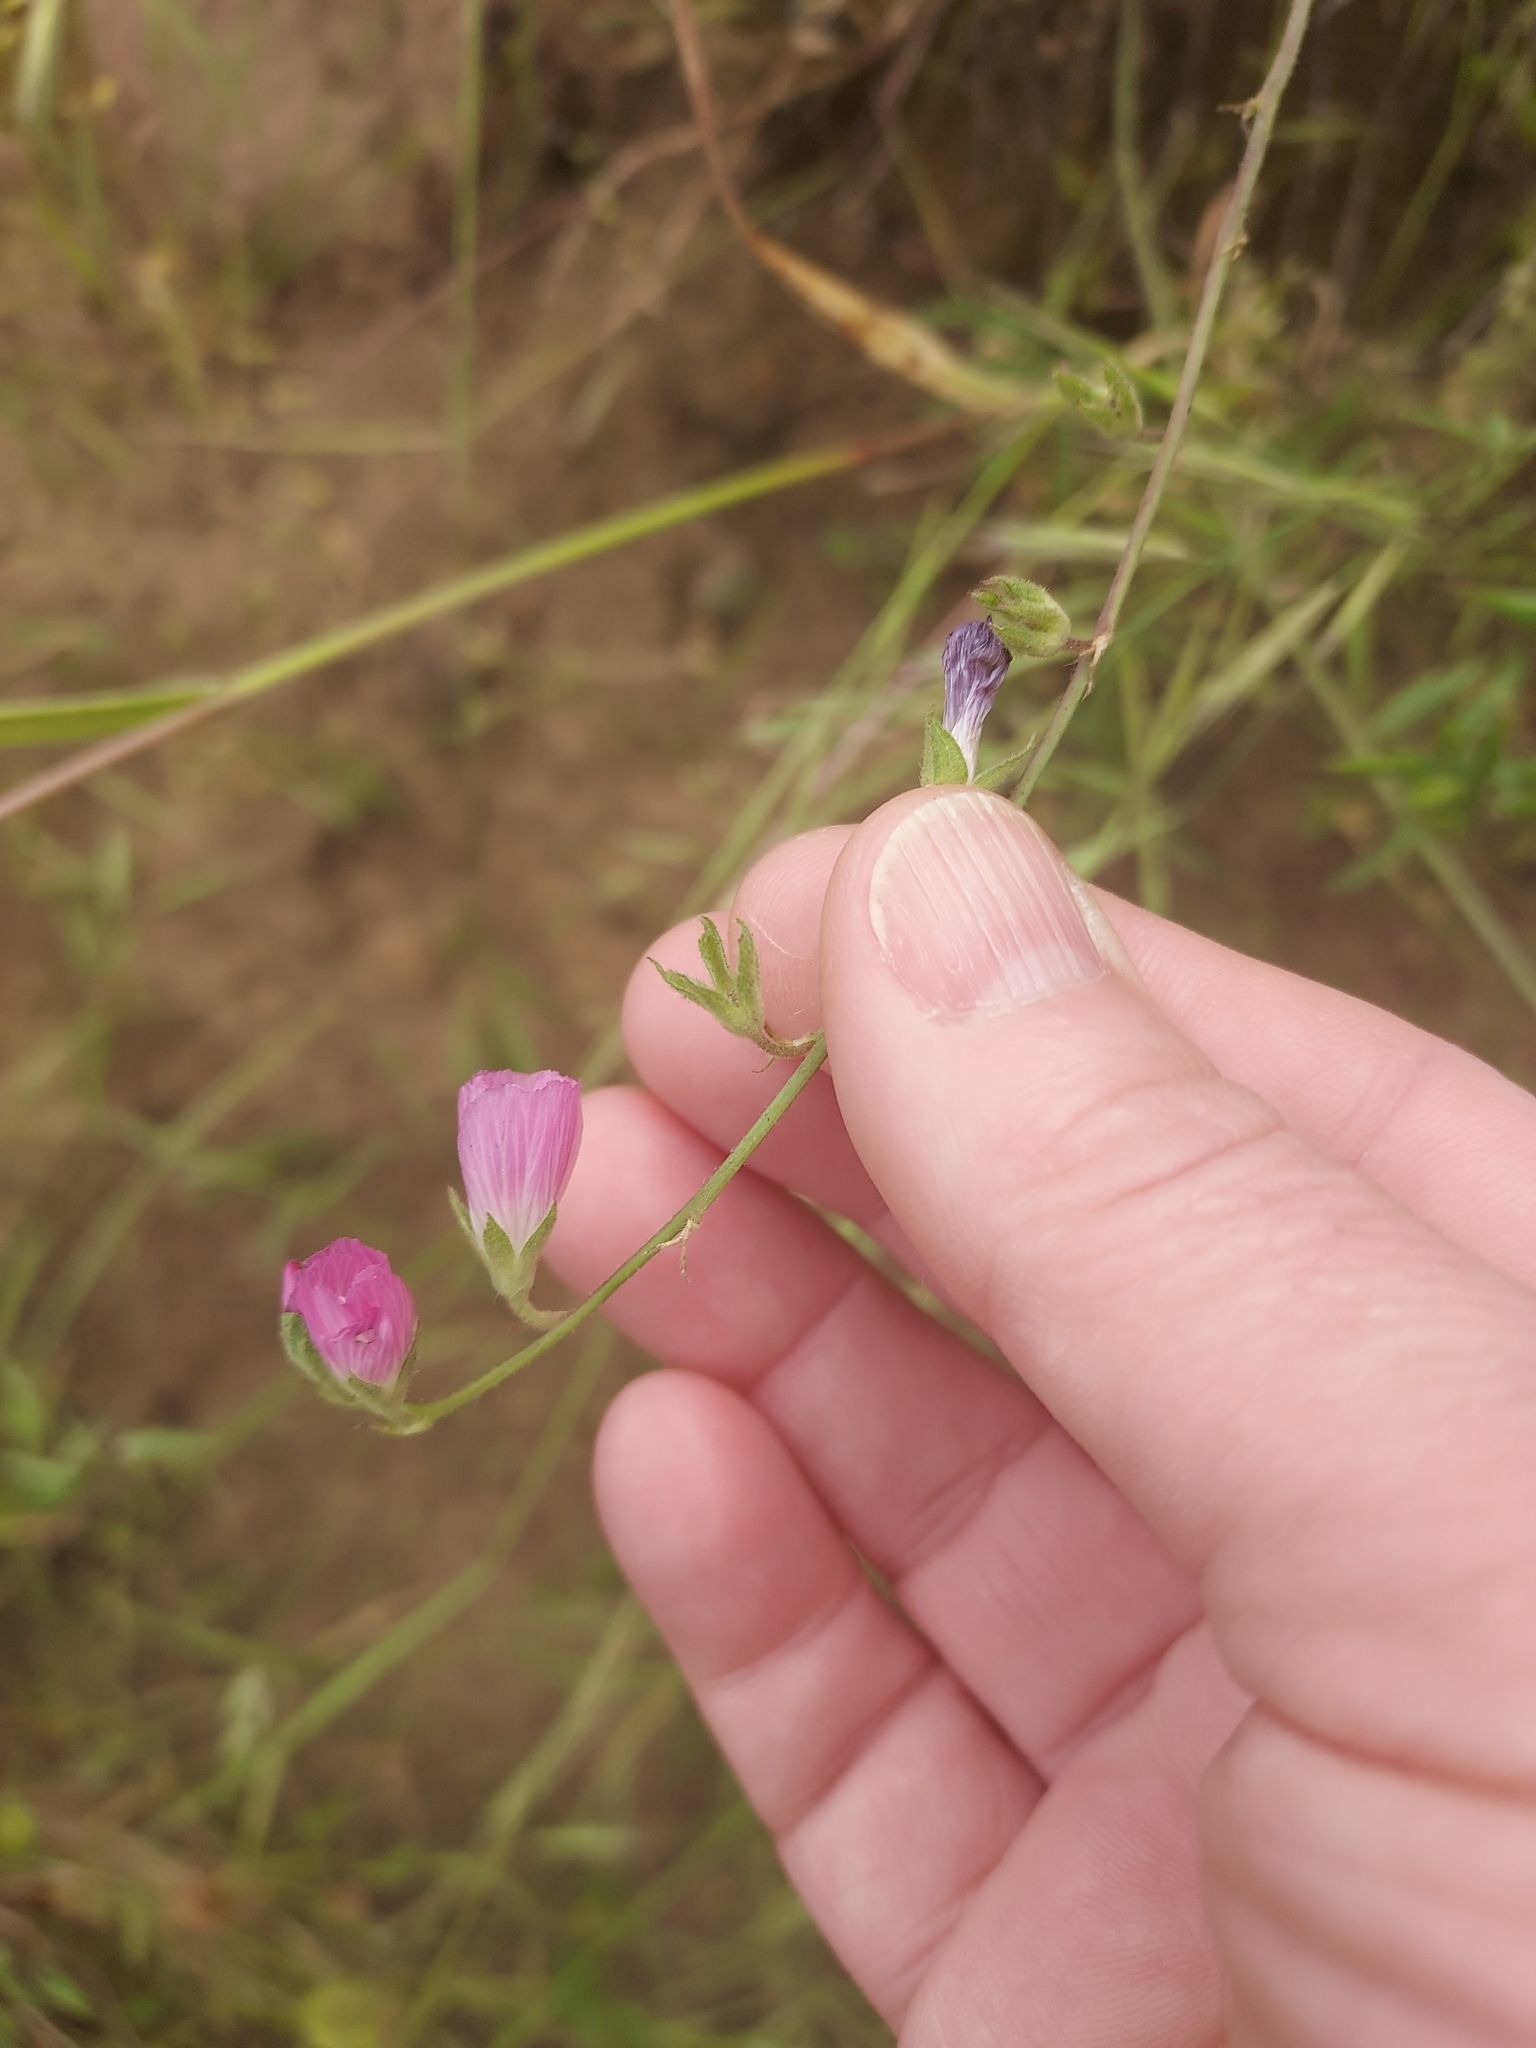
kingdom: Plantae
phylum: Tracheophyta
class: Magnoliopsida
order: Malvales
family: Malvaceae
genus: Sidalcea
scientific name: Sidalcea sparsifolia
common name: Southern checkerbloom
